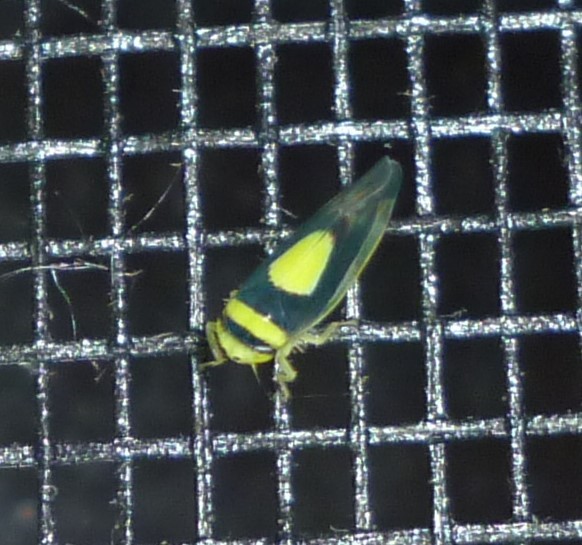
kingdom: Animalia
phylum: Arthropoda
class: Insecta
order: Hemiptera
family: Cicadellidae
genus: Colladonus
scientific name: Colladonus clitellarius
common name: The saddleback leafhopper
